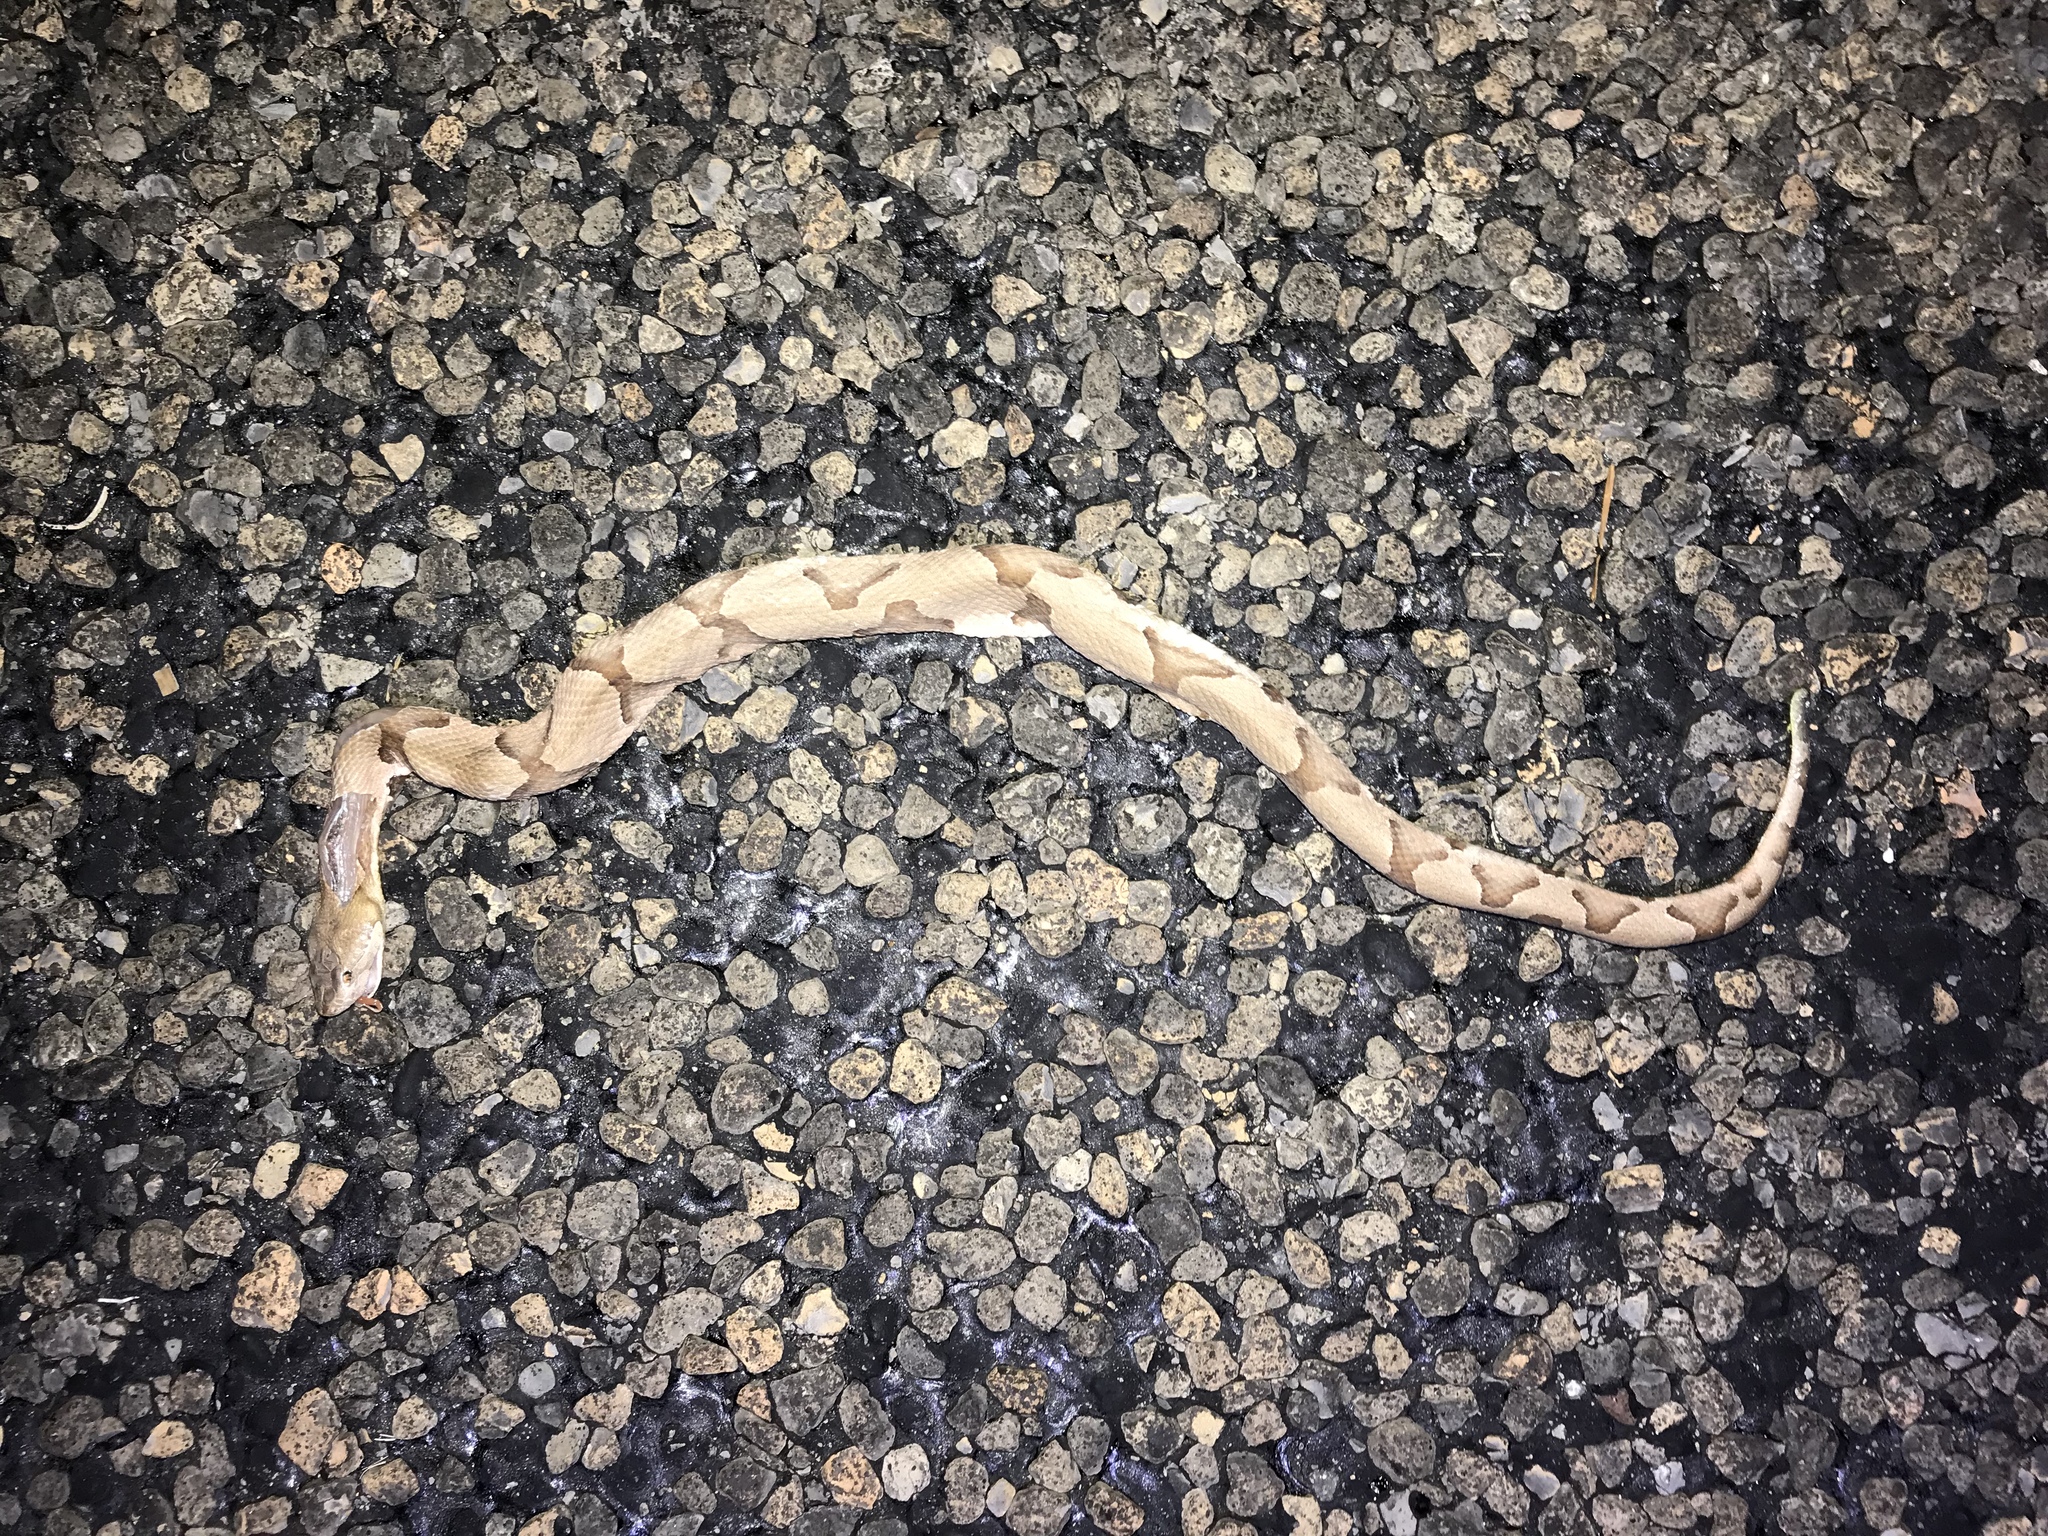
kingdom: Animalia
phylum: Chordata
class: Squamata
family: Viperidae
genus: Agkistrodon
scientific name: Agkistrodon contortrix
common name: Northern copperhead
